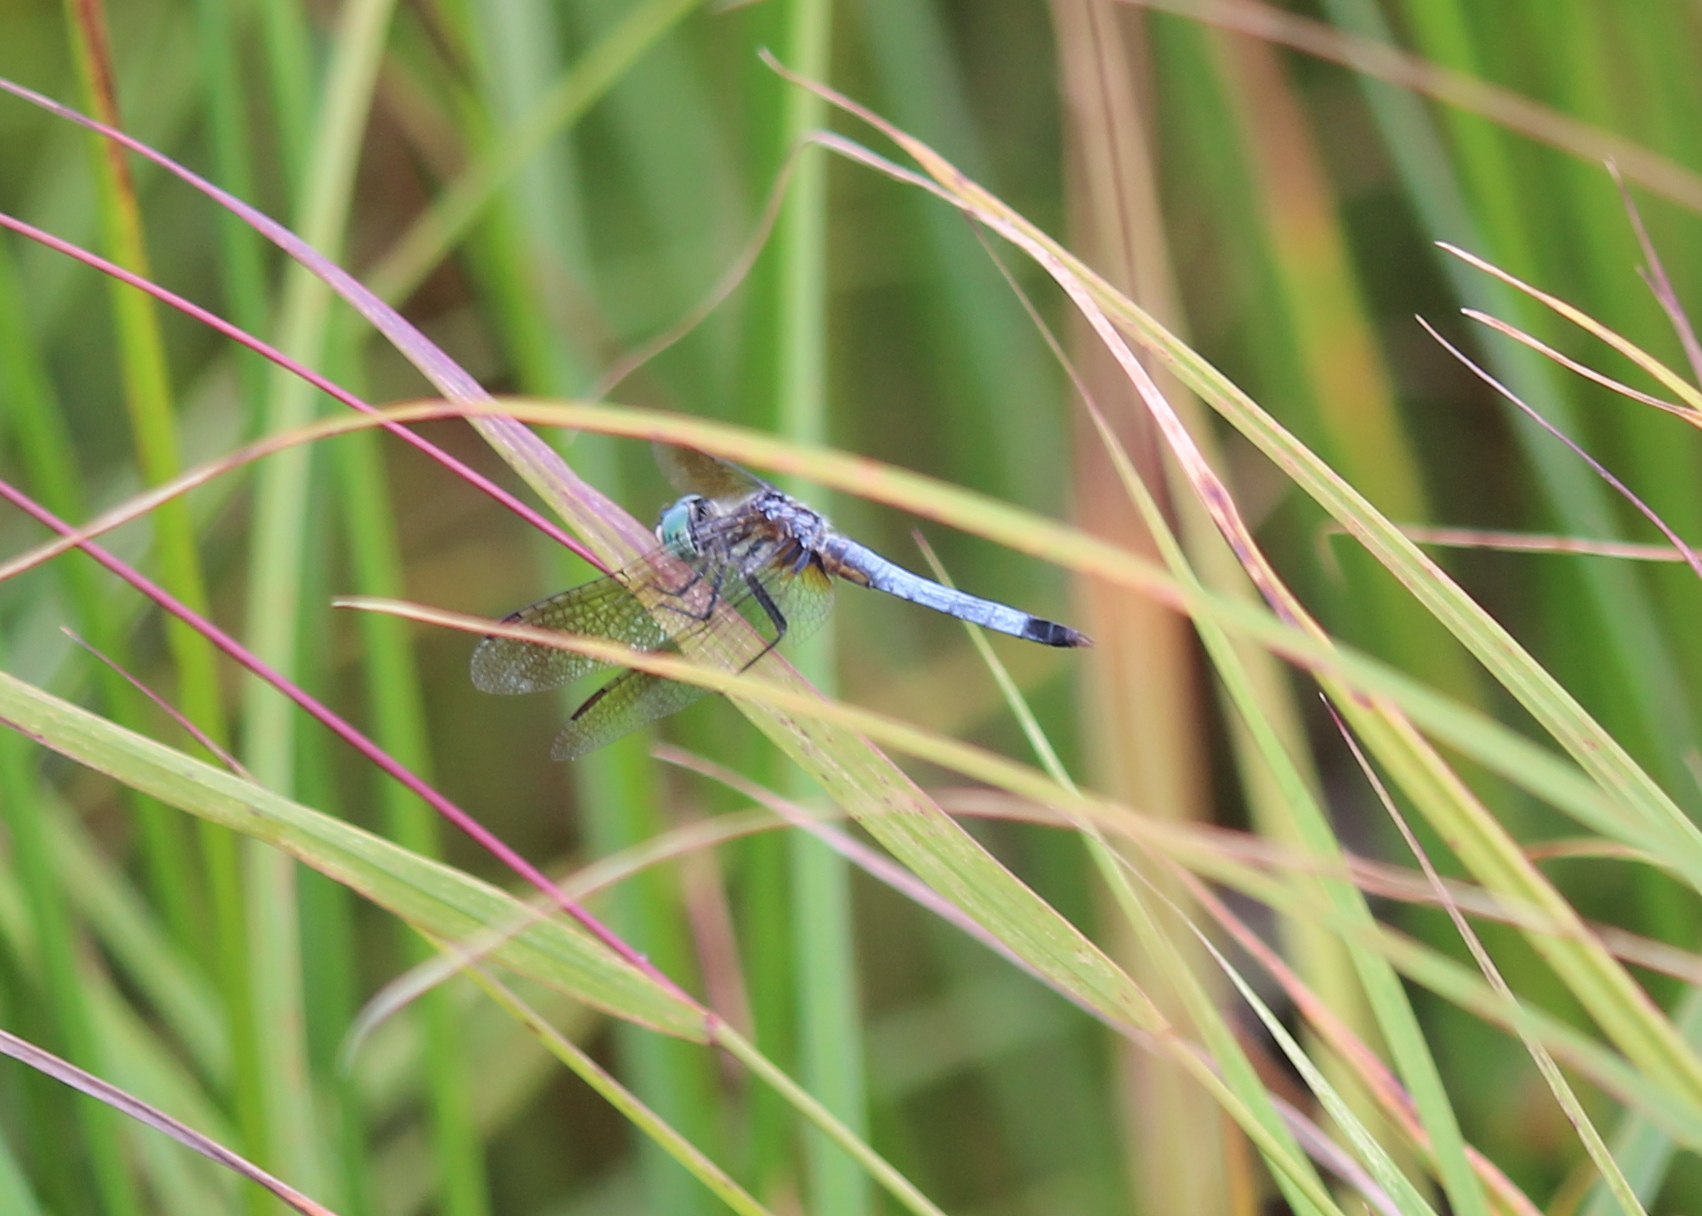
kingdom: Animalia
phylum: Arthropoda
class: Insecta
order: Odonata
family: Libellulidae
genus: Pachydiplax
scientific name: Pachydiplax longipennis
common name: Blue dasher
